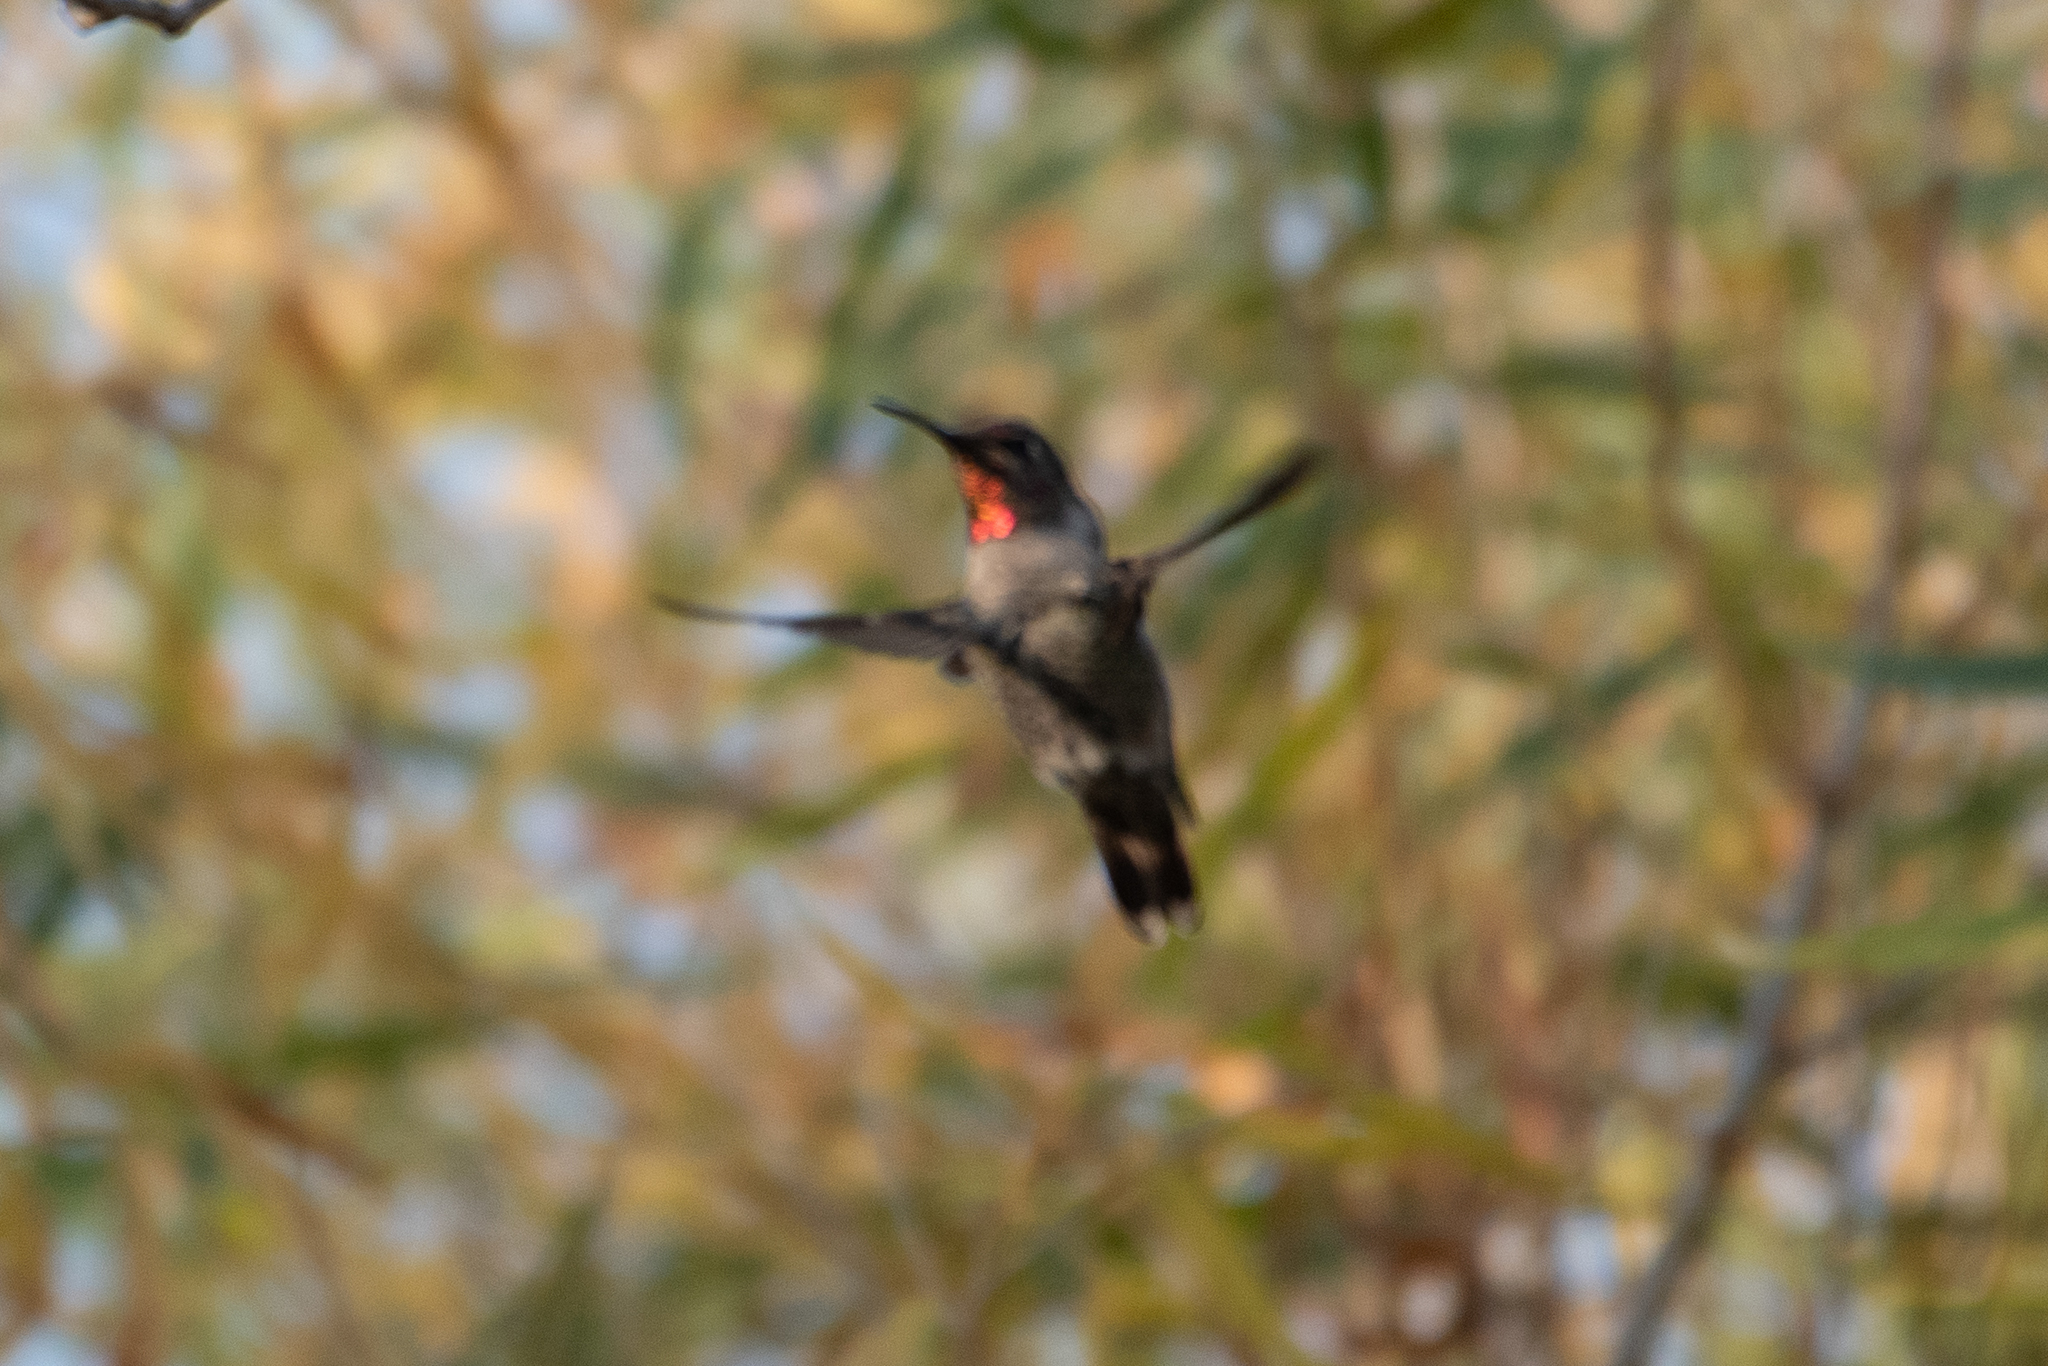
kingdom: Animalia
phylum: Chordata
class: Aves
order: Apodiformes
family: Trochilidae
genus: Calypte
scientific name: Calypte anna
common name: Anna's hummingbird
